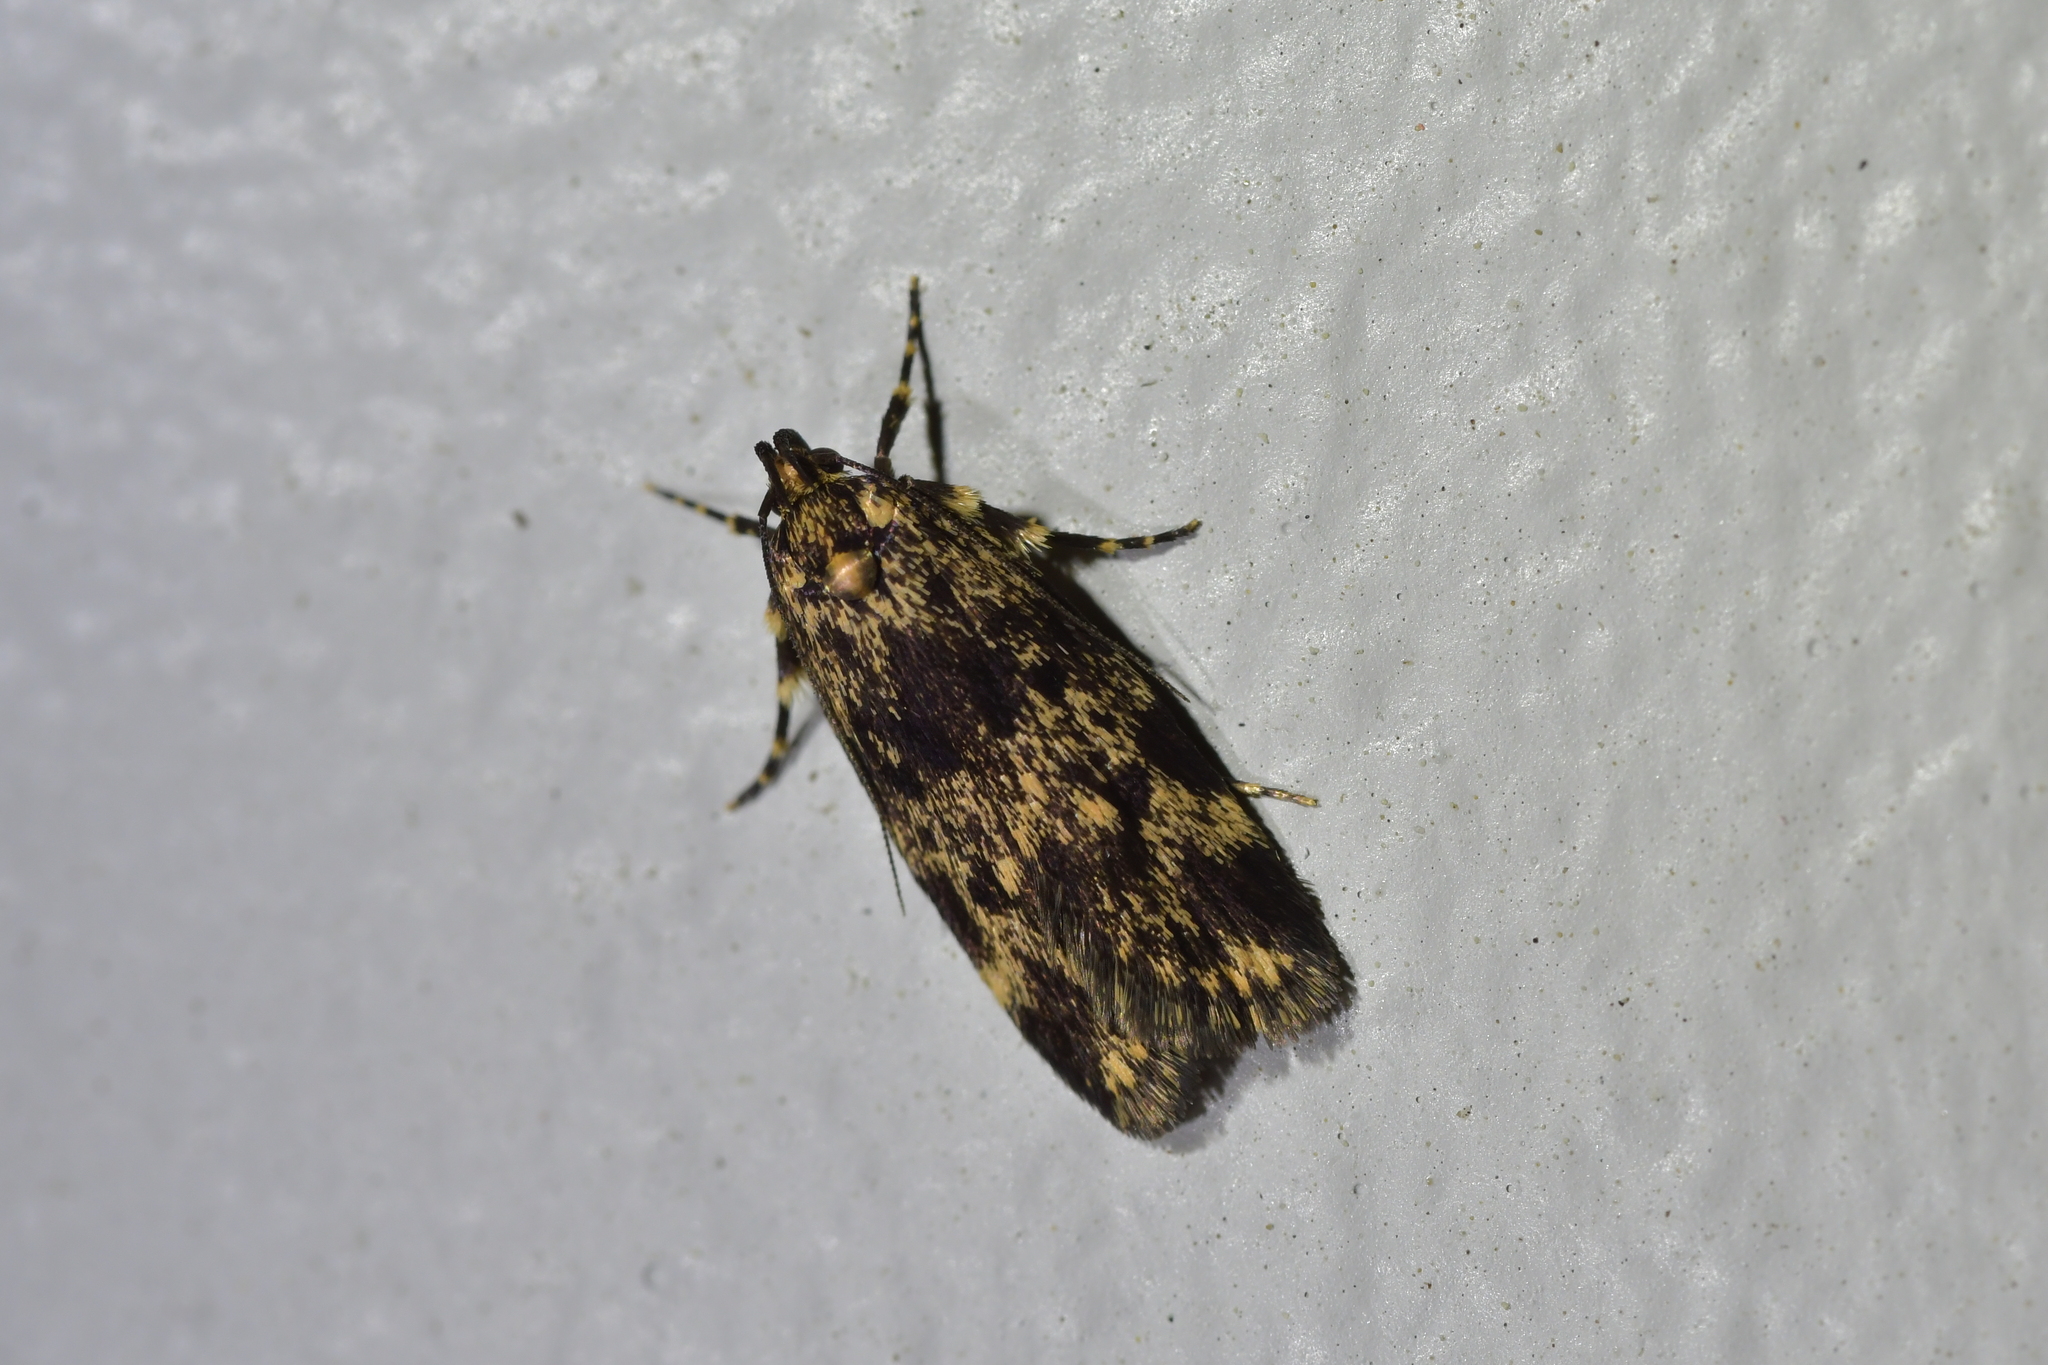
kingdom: Animalia
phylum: Arthropoda
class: Insecta
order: Lepidoptera
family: Oecophoridae
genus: Barea
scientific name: Barea codrella
